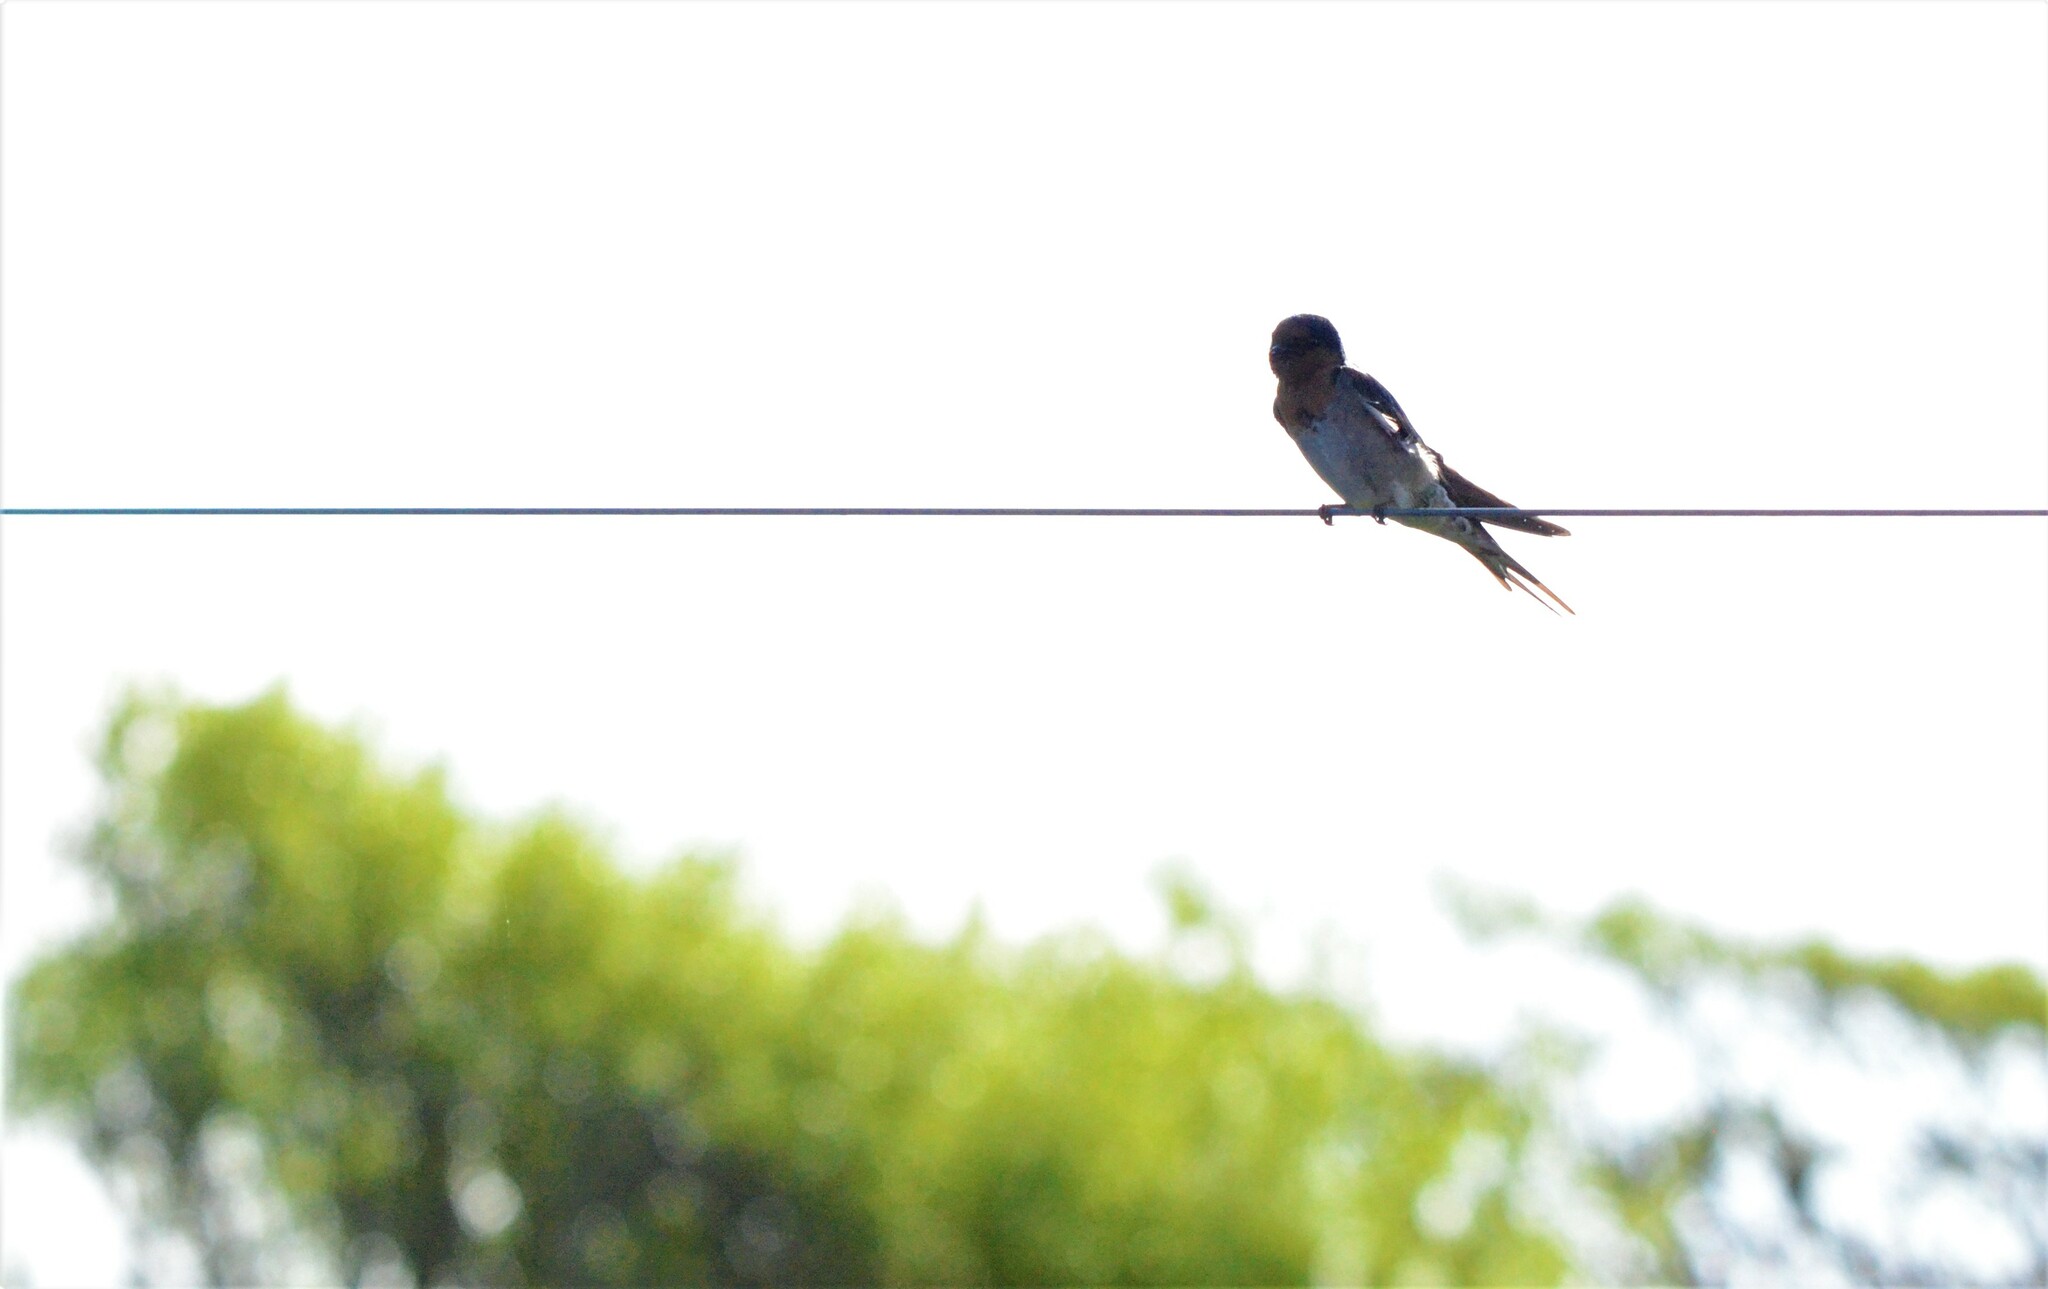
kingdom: Animalia
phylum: Chordata
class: Aves
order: Passeriformes
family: Hirundinidae
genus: Hirundo
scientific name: Hirundo neoxena
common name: Welcome swallow
